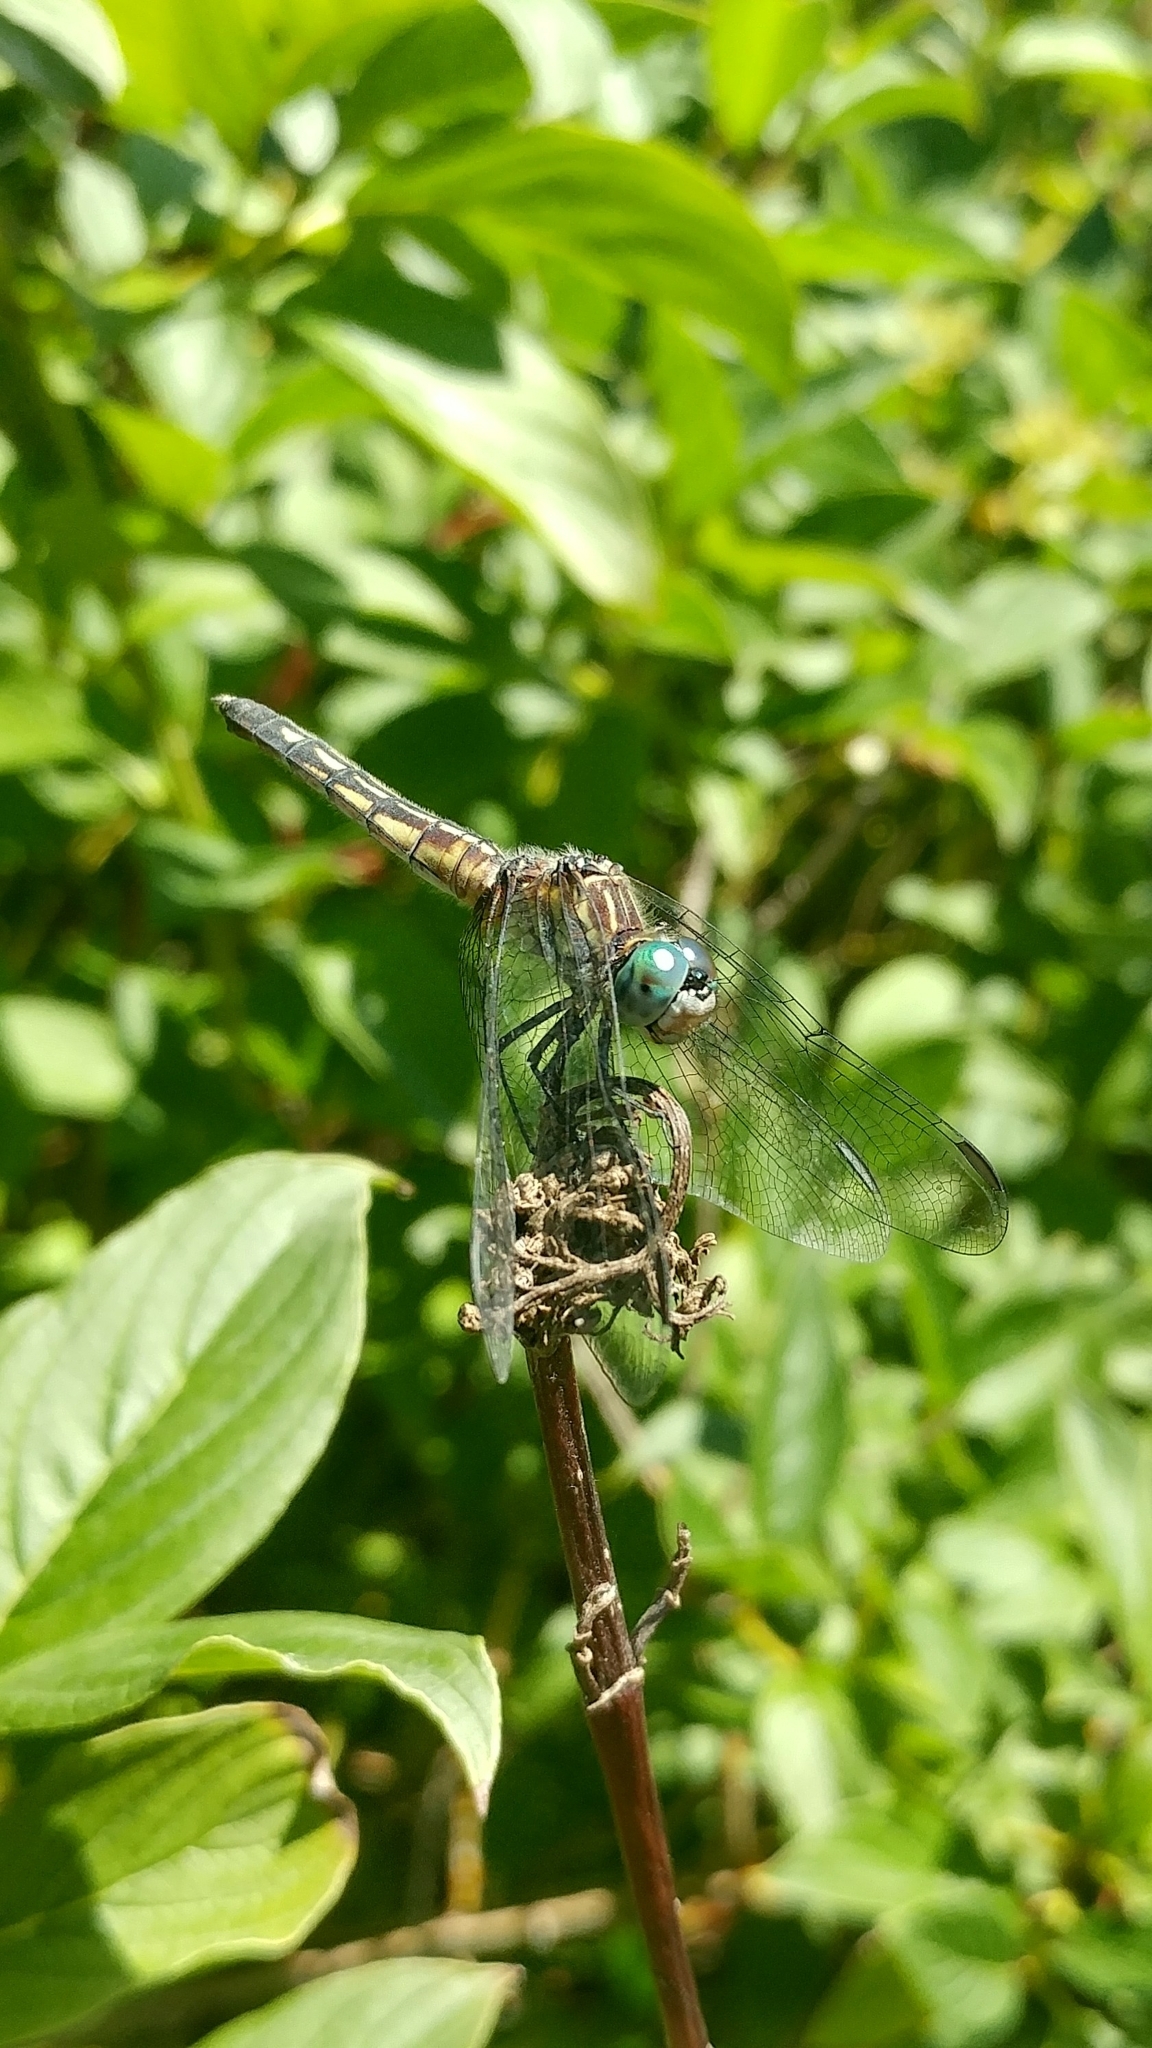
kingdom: Animalia
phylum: Arthropoda
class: Insecta
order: Odonata
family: Libellulidae
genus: Pachydiplax
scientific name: Pachydiplax longipennis
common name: Blue dasher
